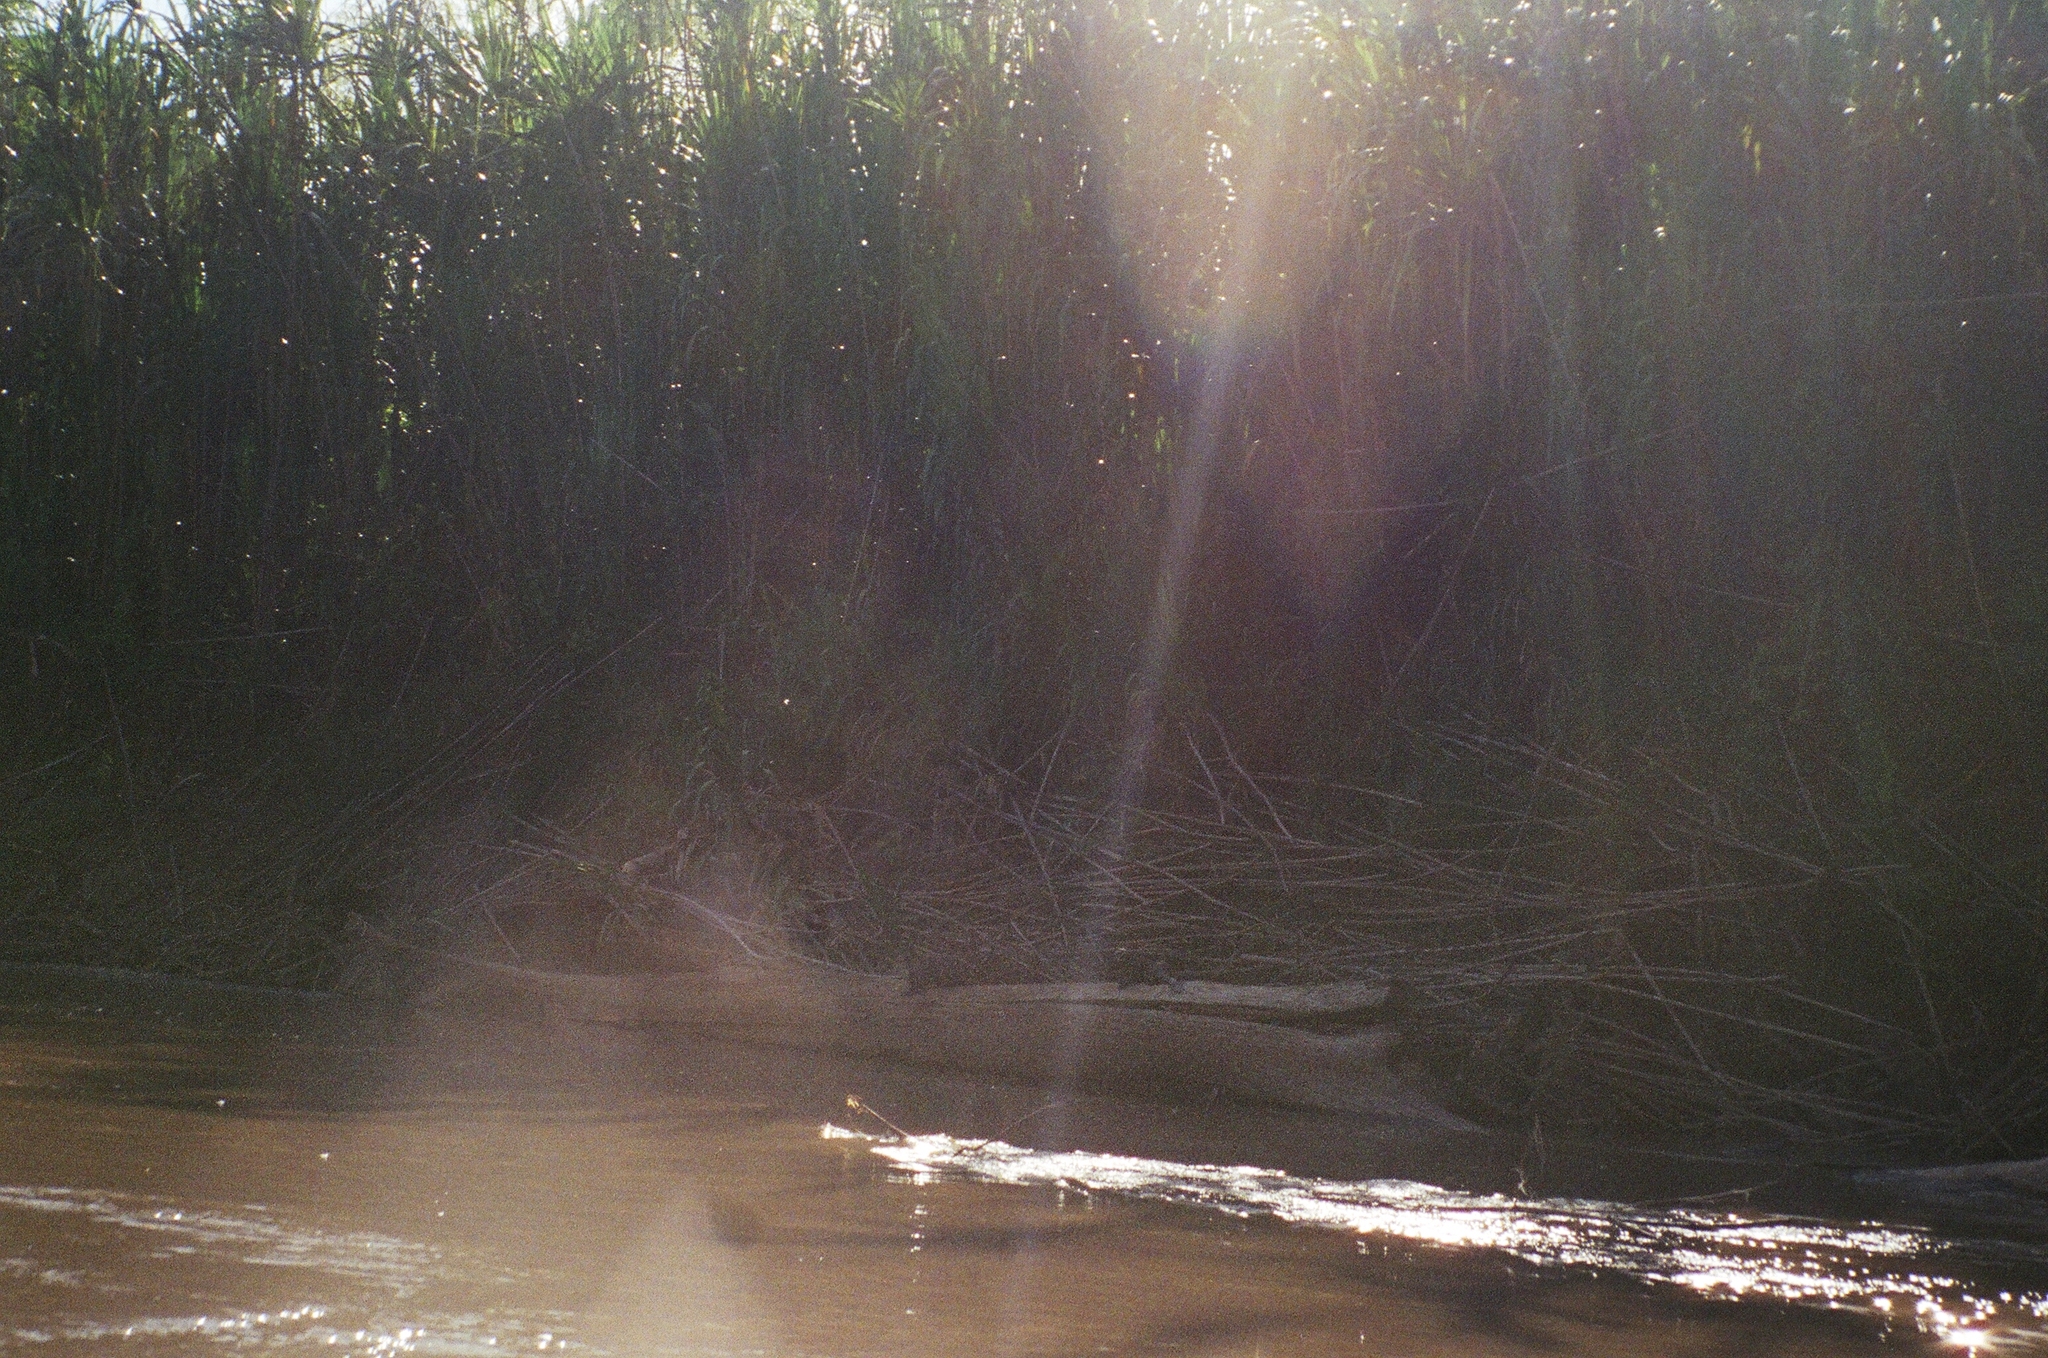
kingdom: Animalia
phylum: Chordata
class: Mammalia
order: Carnivora
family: Mustelidae
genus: Pteronura
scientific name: Pteronura brasiliensis
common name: Giant otter
